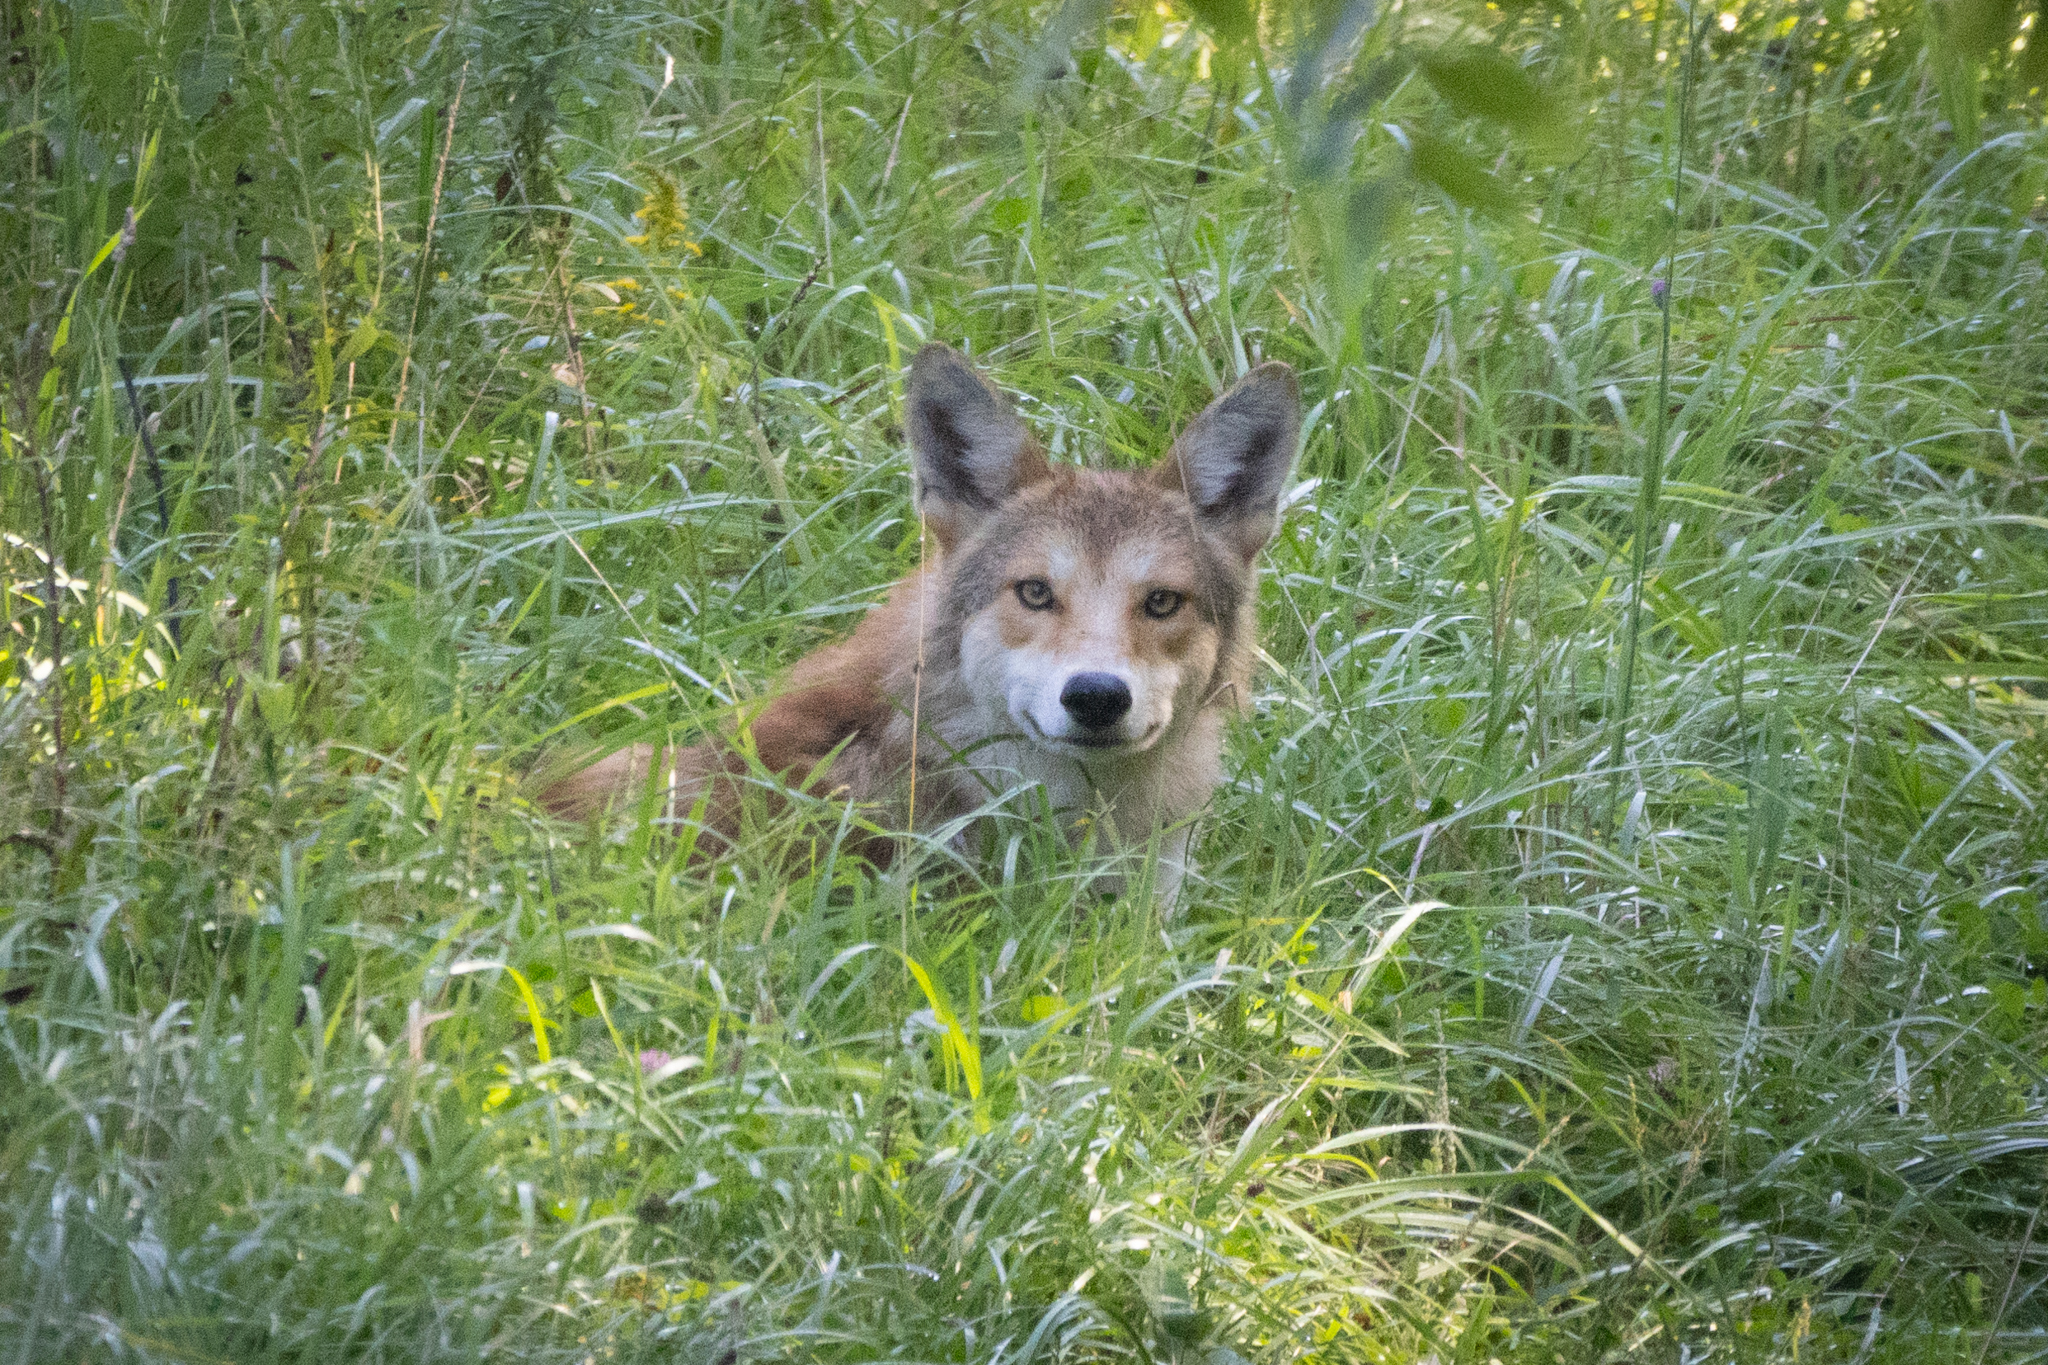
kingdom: Animalia
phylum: Chordata
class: Mammalia
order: Carnivora
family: Canidae
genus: Canis
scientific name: Canis latrans
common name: Coyote
